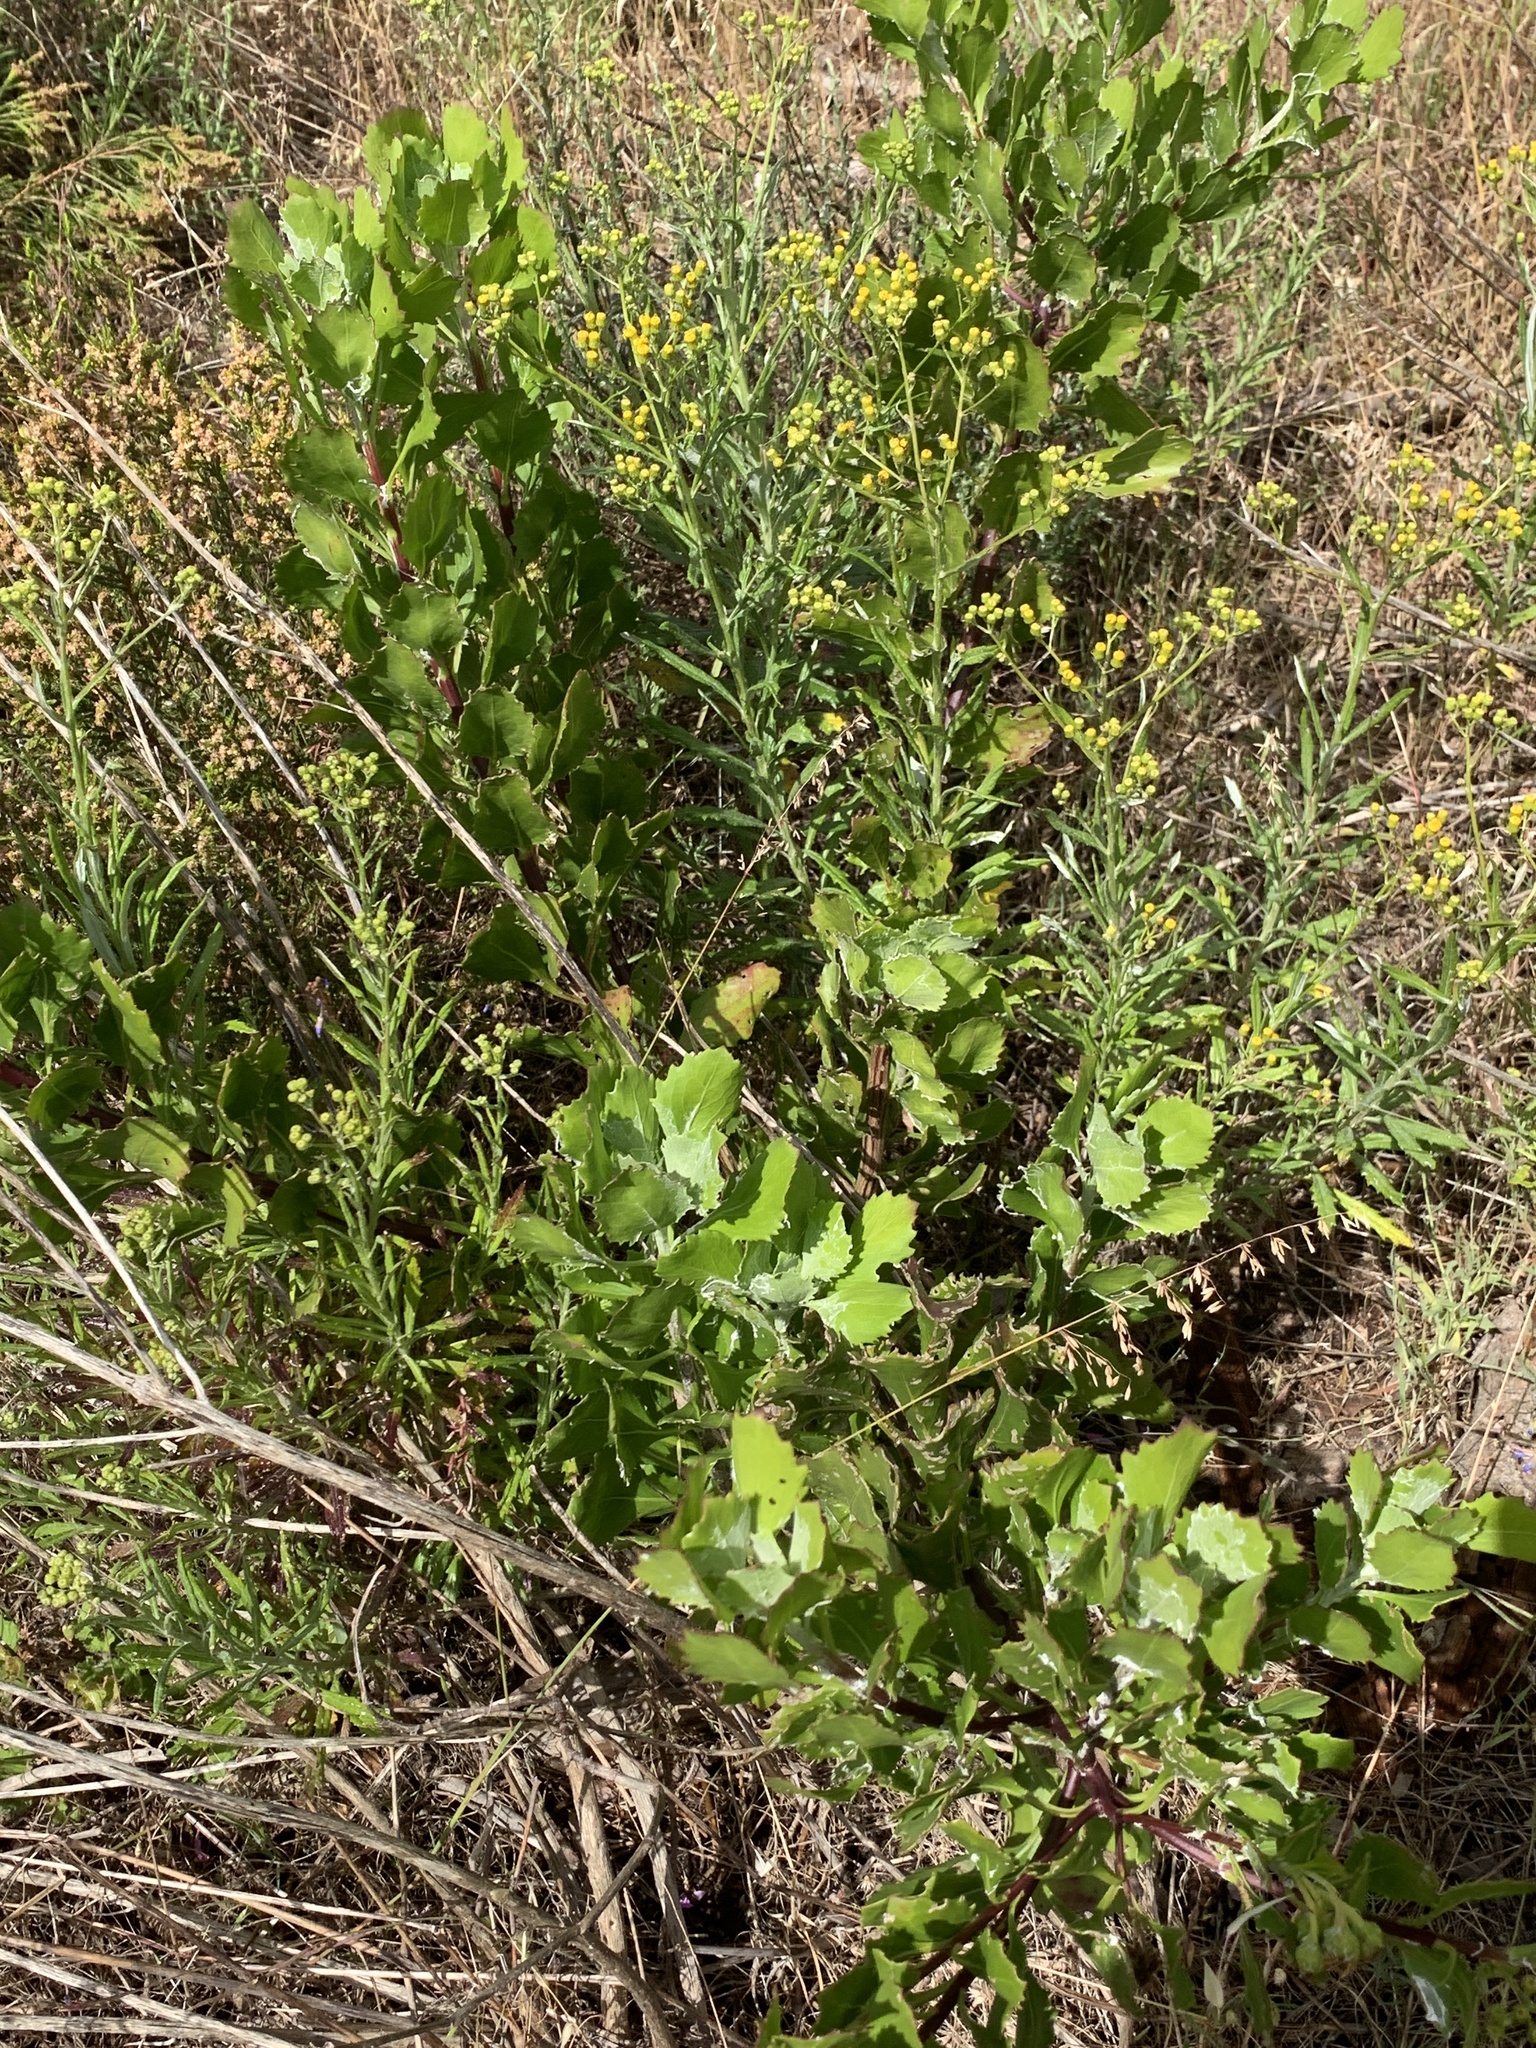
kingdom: Plantae
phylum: Tracheophyta
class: Magnoliopsida
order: Asterales
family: Asteraceae
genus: Osteospermum
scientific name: Osteospermum moniliferum
